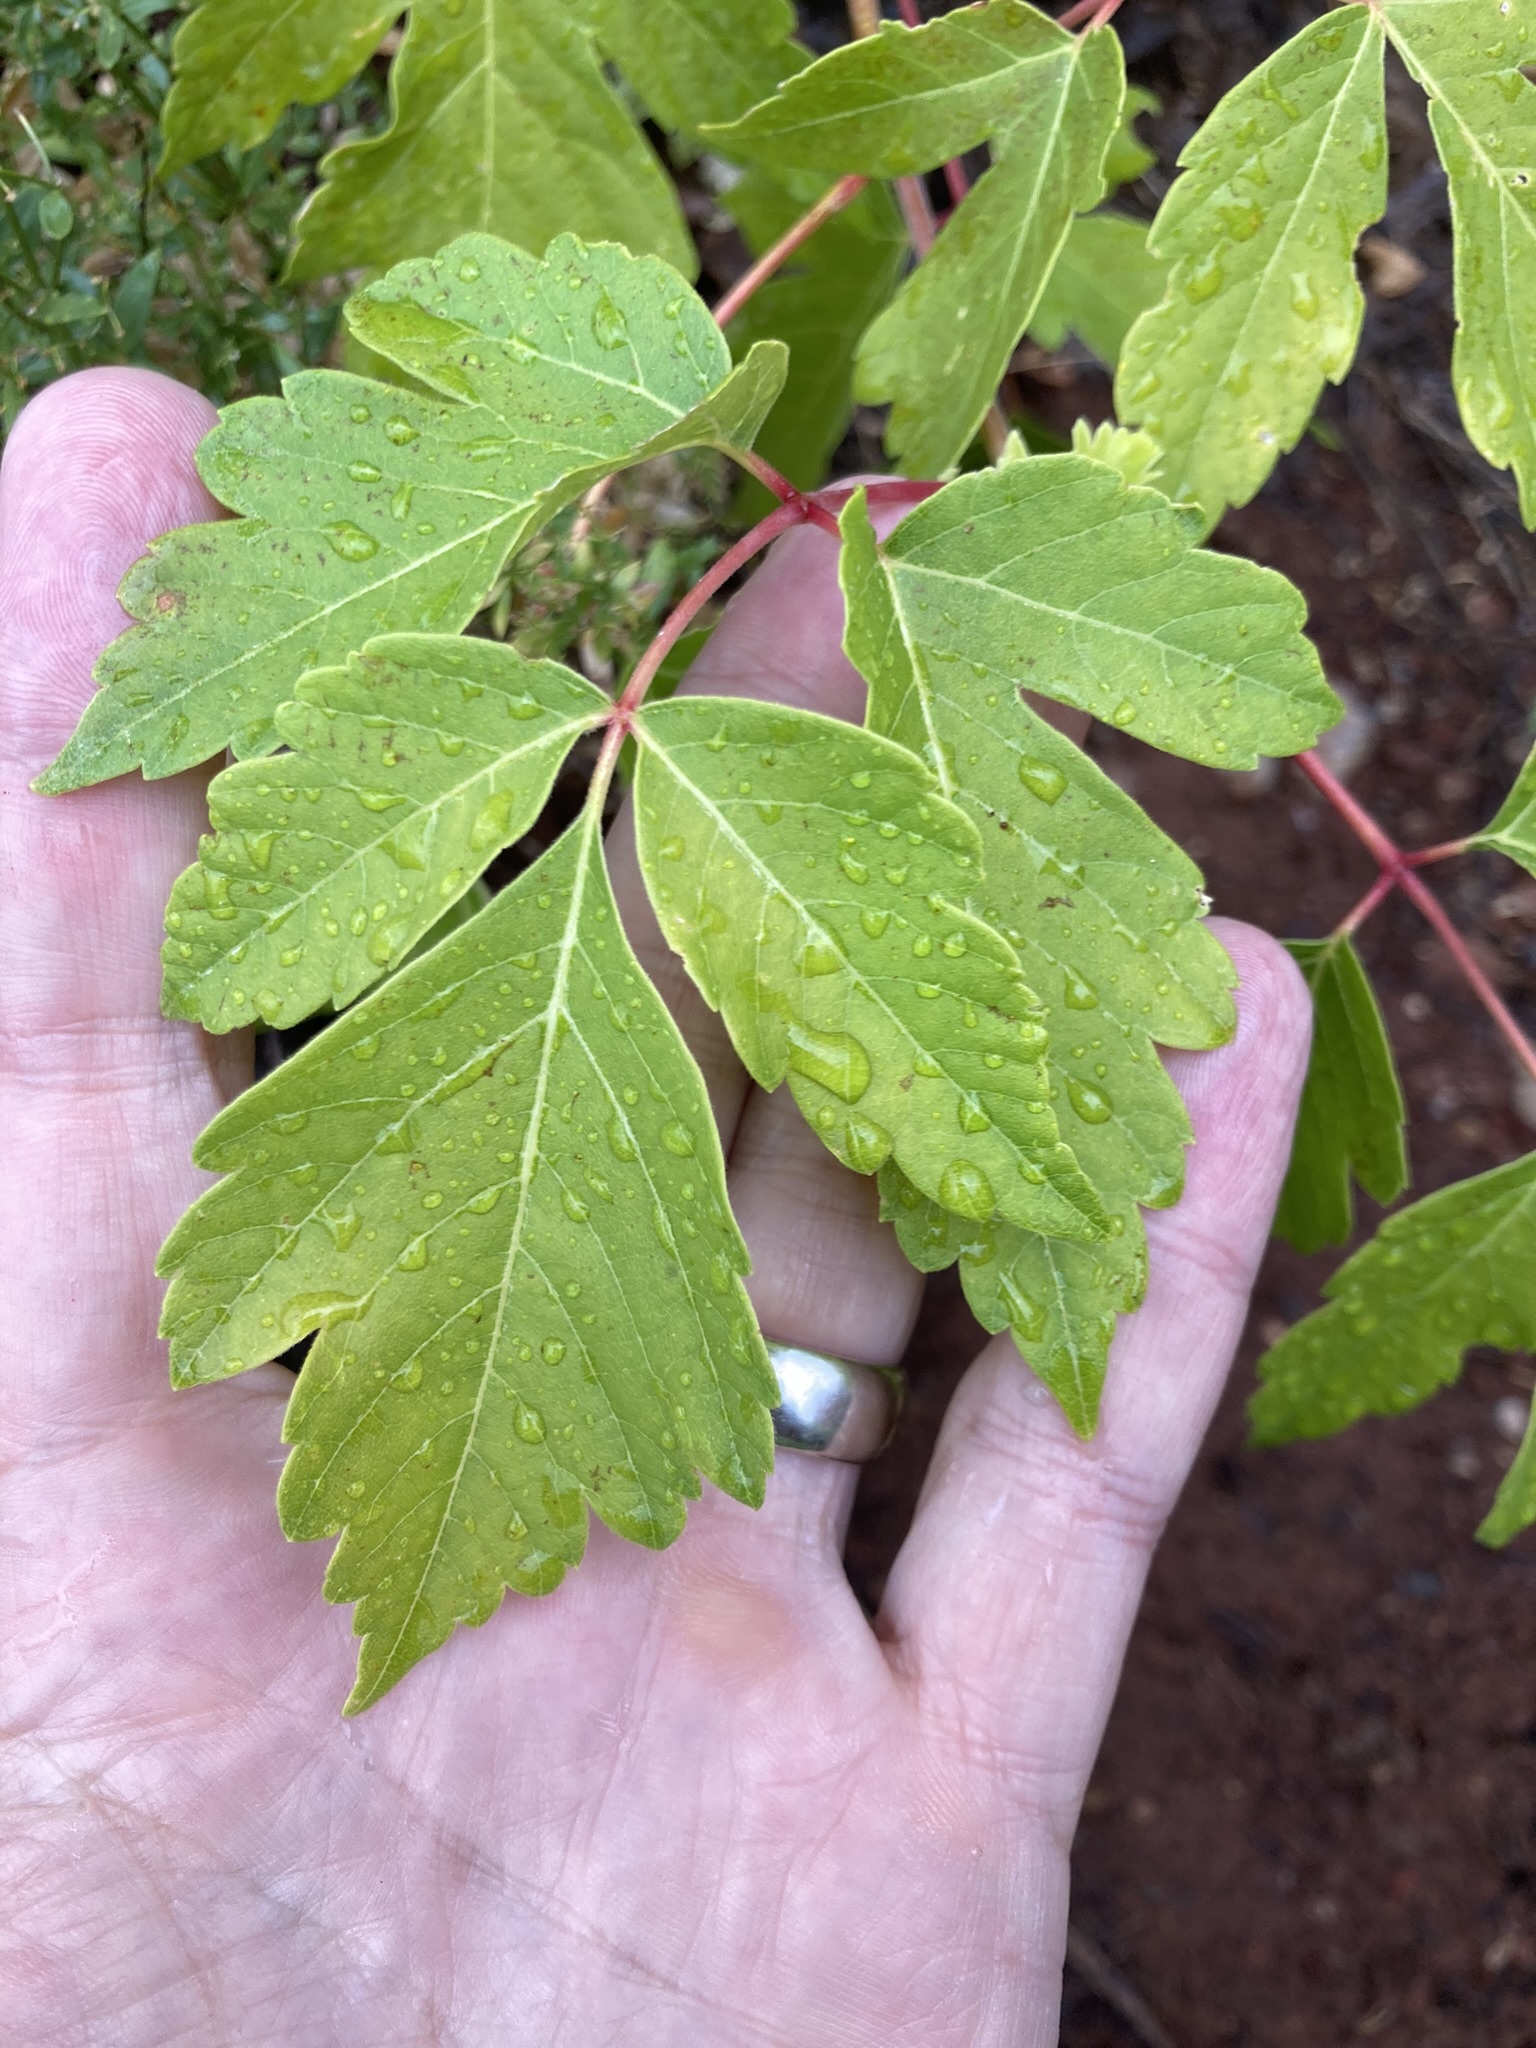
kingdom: Plantae
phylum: Tracheophyta
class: Magnoliopsida
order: Sapindales
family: Sapindaceae
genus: Acer
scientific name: Acer negundo
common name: Ashleaf maple
